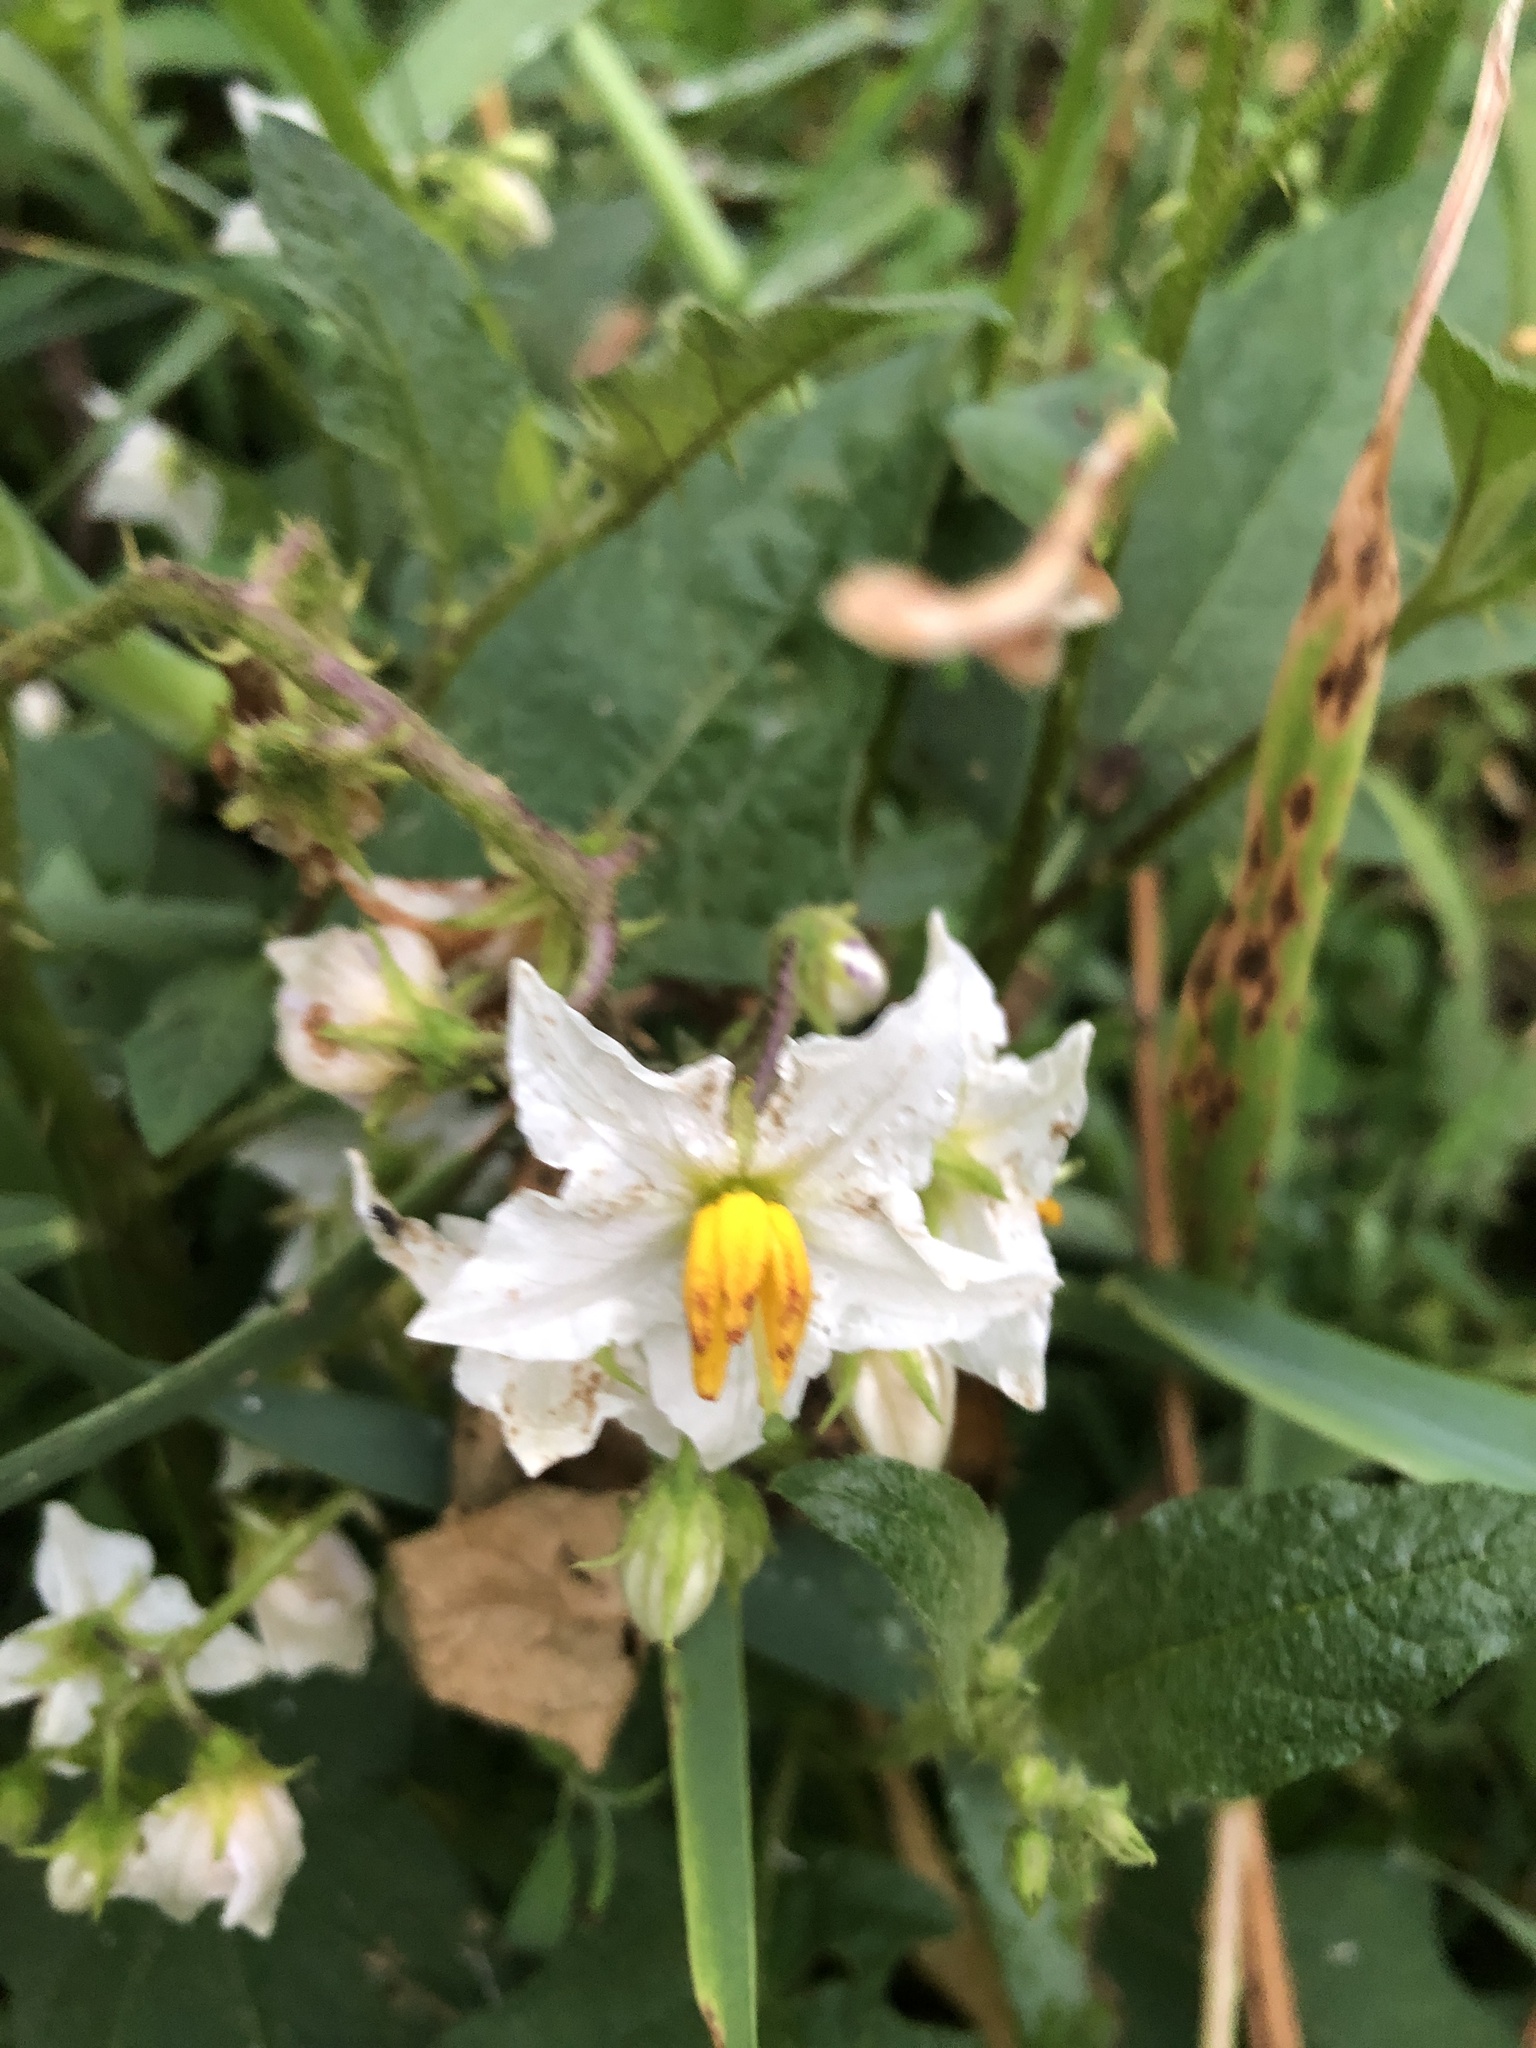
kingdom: Plantae
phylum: Tracheophyta
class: Magnoliopsida
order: Solanales
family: Solanaceae
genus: Solanum
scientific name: Solanum carolinense
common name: Horse-nettle
